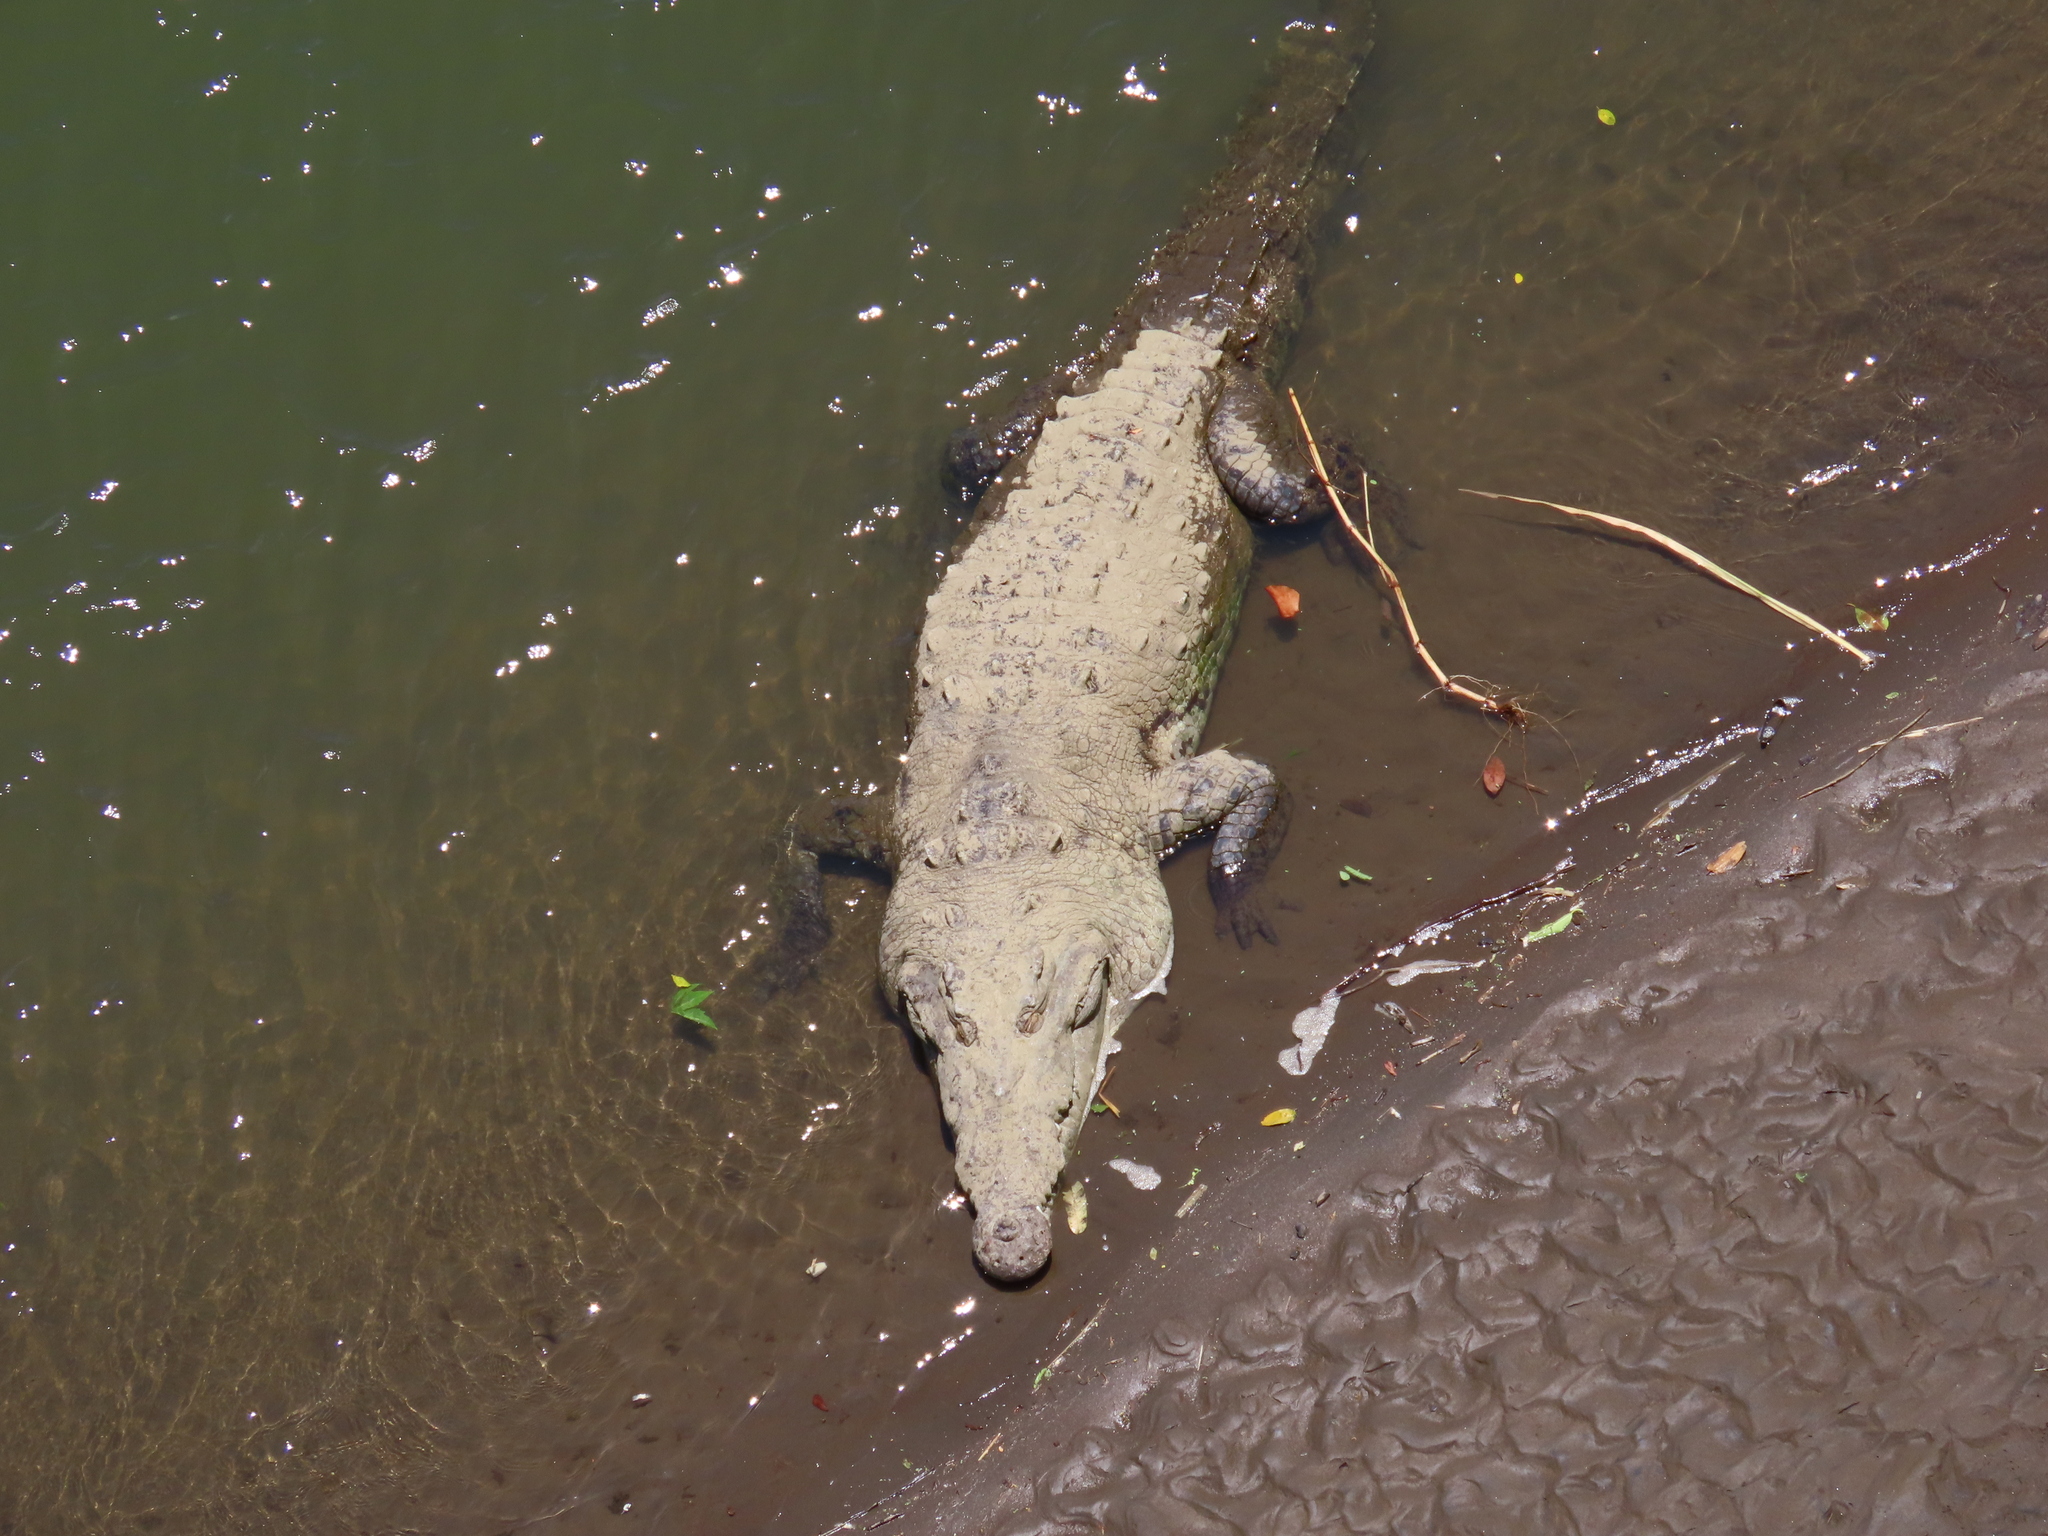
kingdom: Animalia
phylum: Chordata
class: Crocodylia
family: Crocodylidae
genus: Crocodylus
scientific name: Crocodylus acutus
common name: American crocodile
